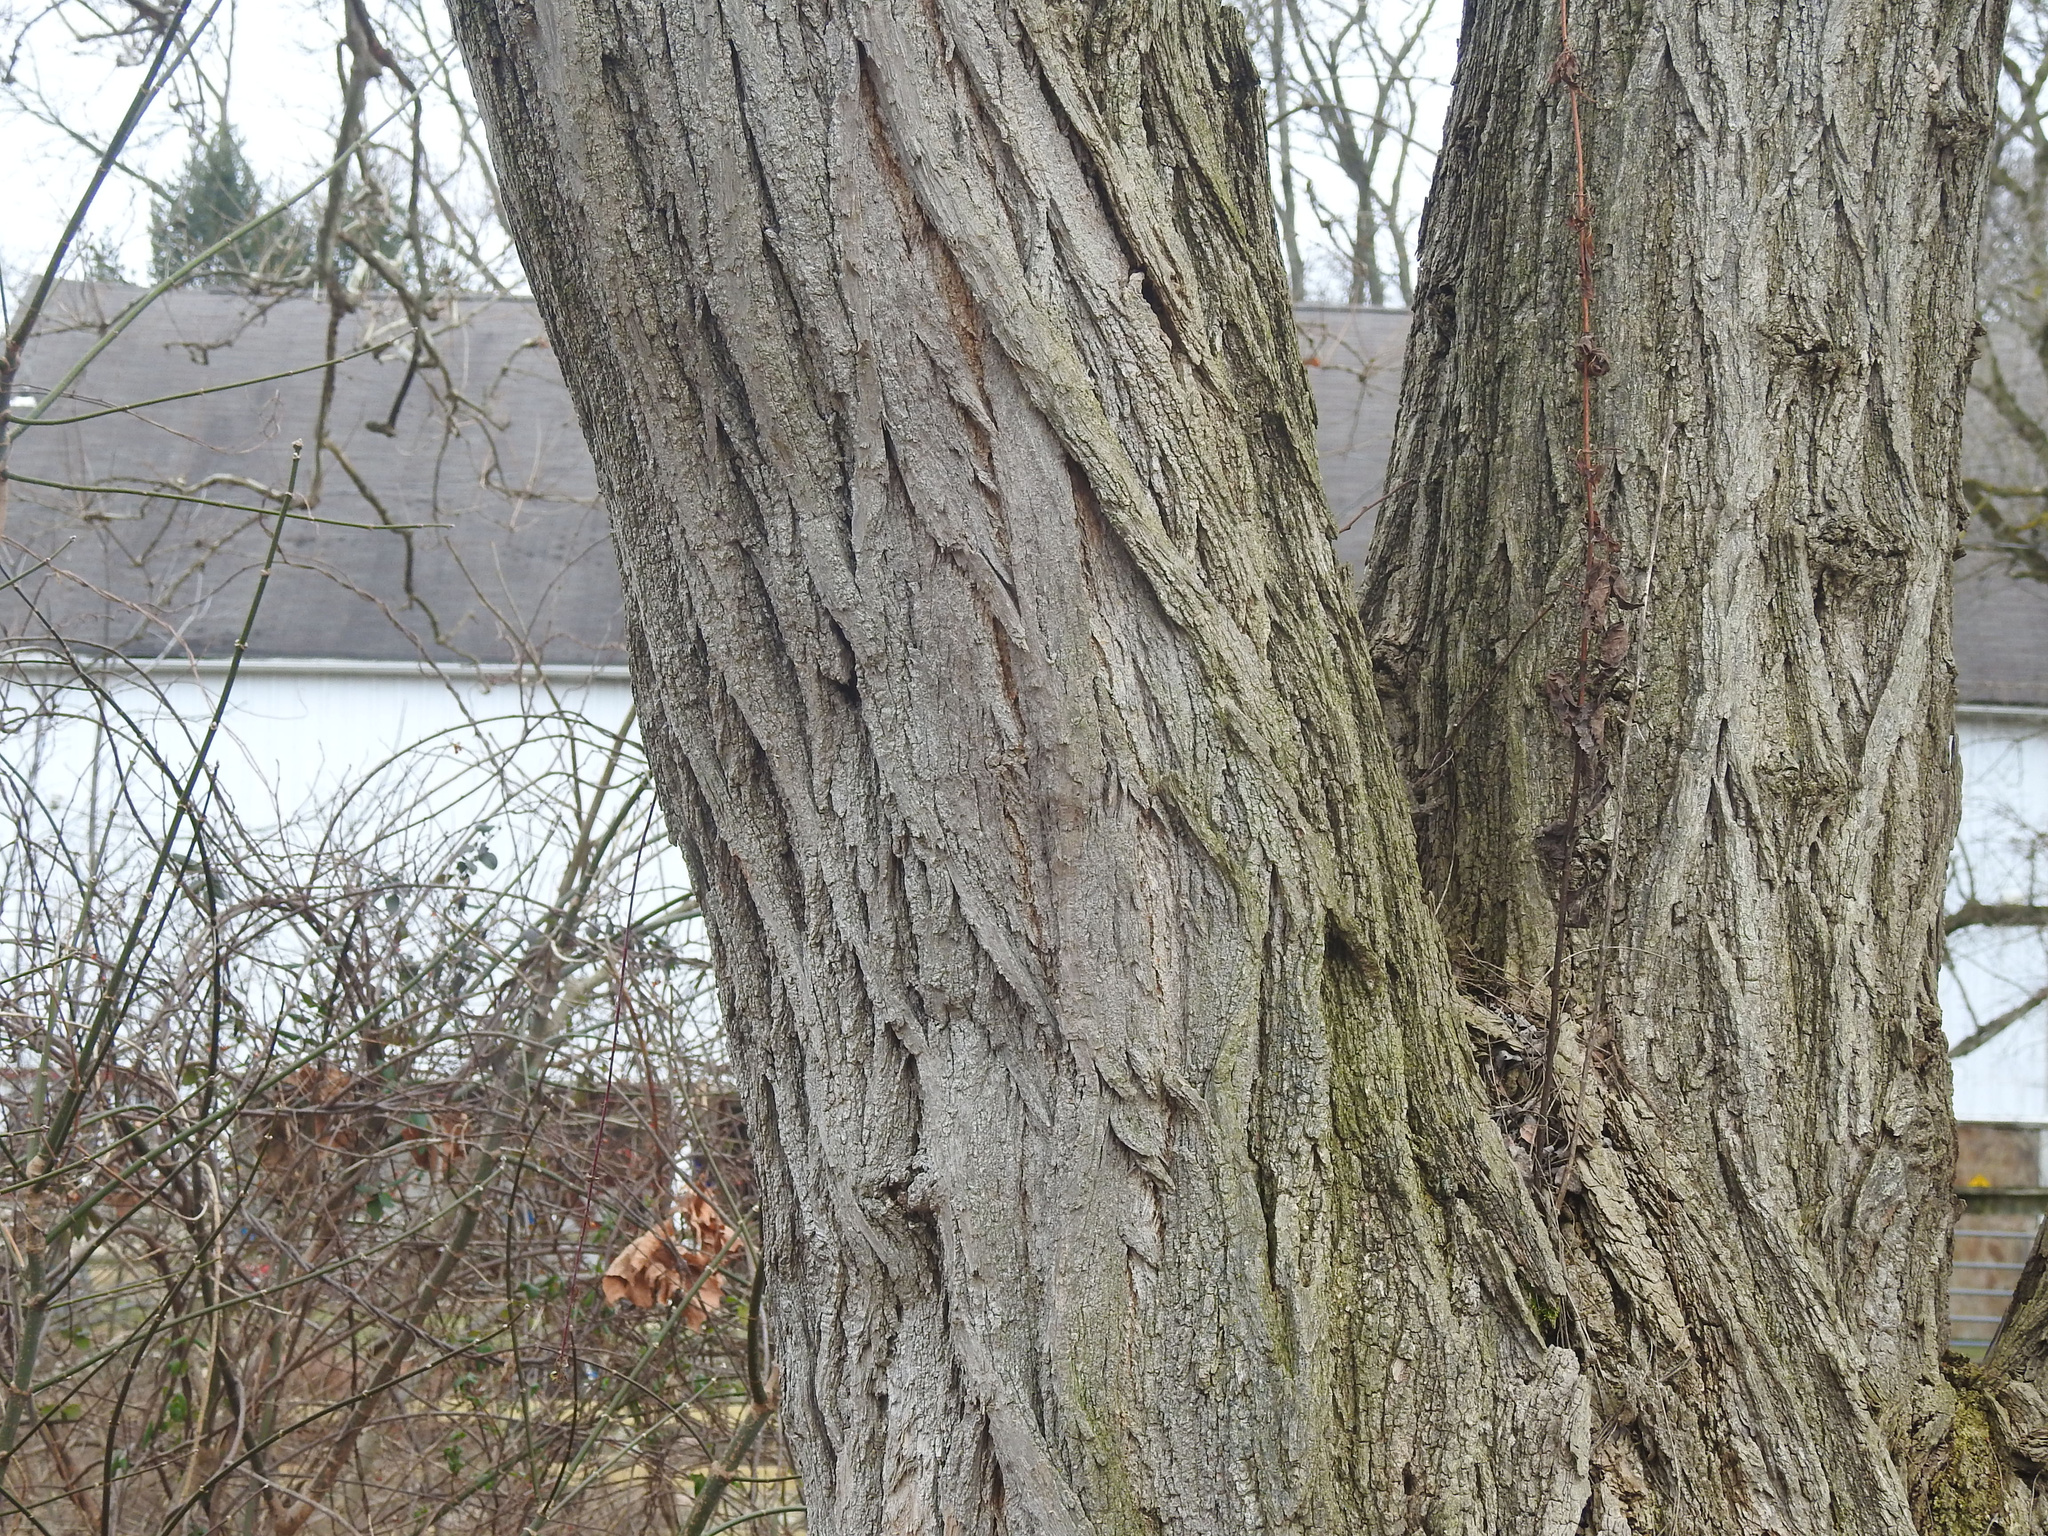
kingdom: Plantae
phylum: Tracheophyta
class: Magnoliopsida
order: Fabales
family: Fabaceae
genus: Robinia
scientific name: Robinia pseudoacacia
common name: Black locust
